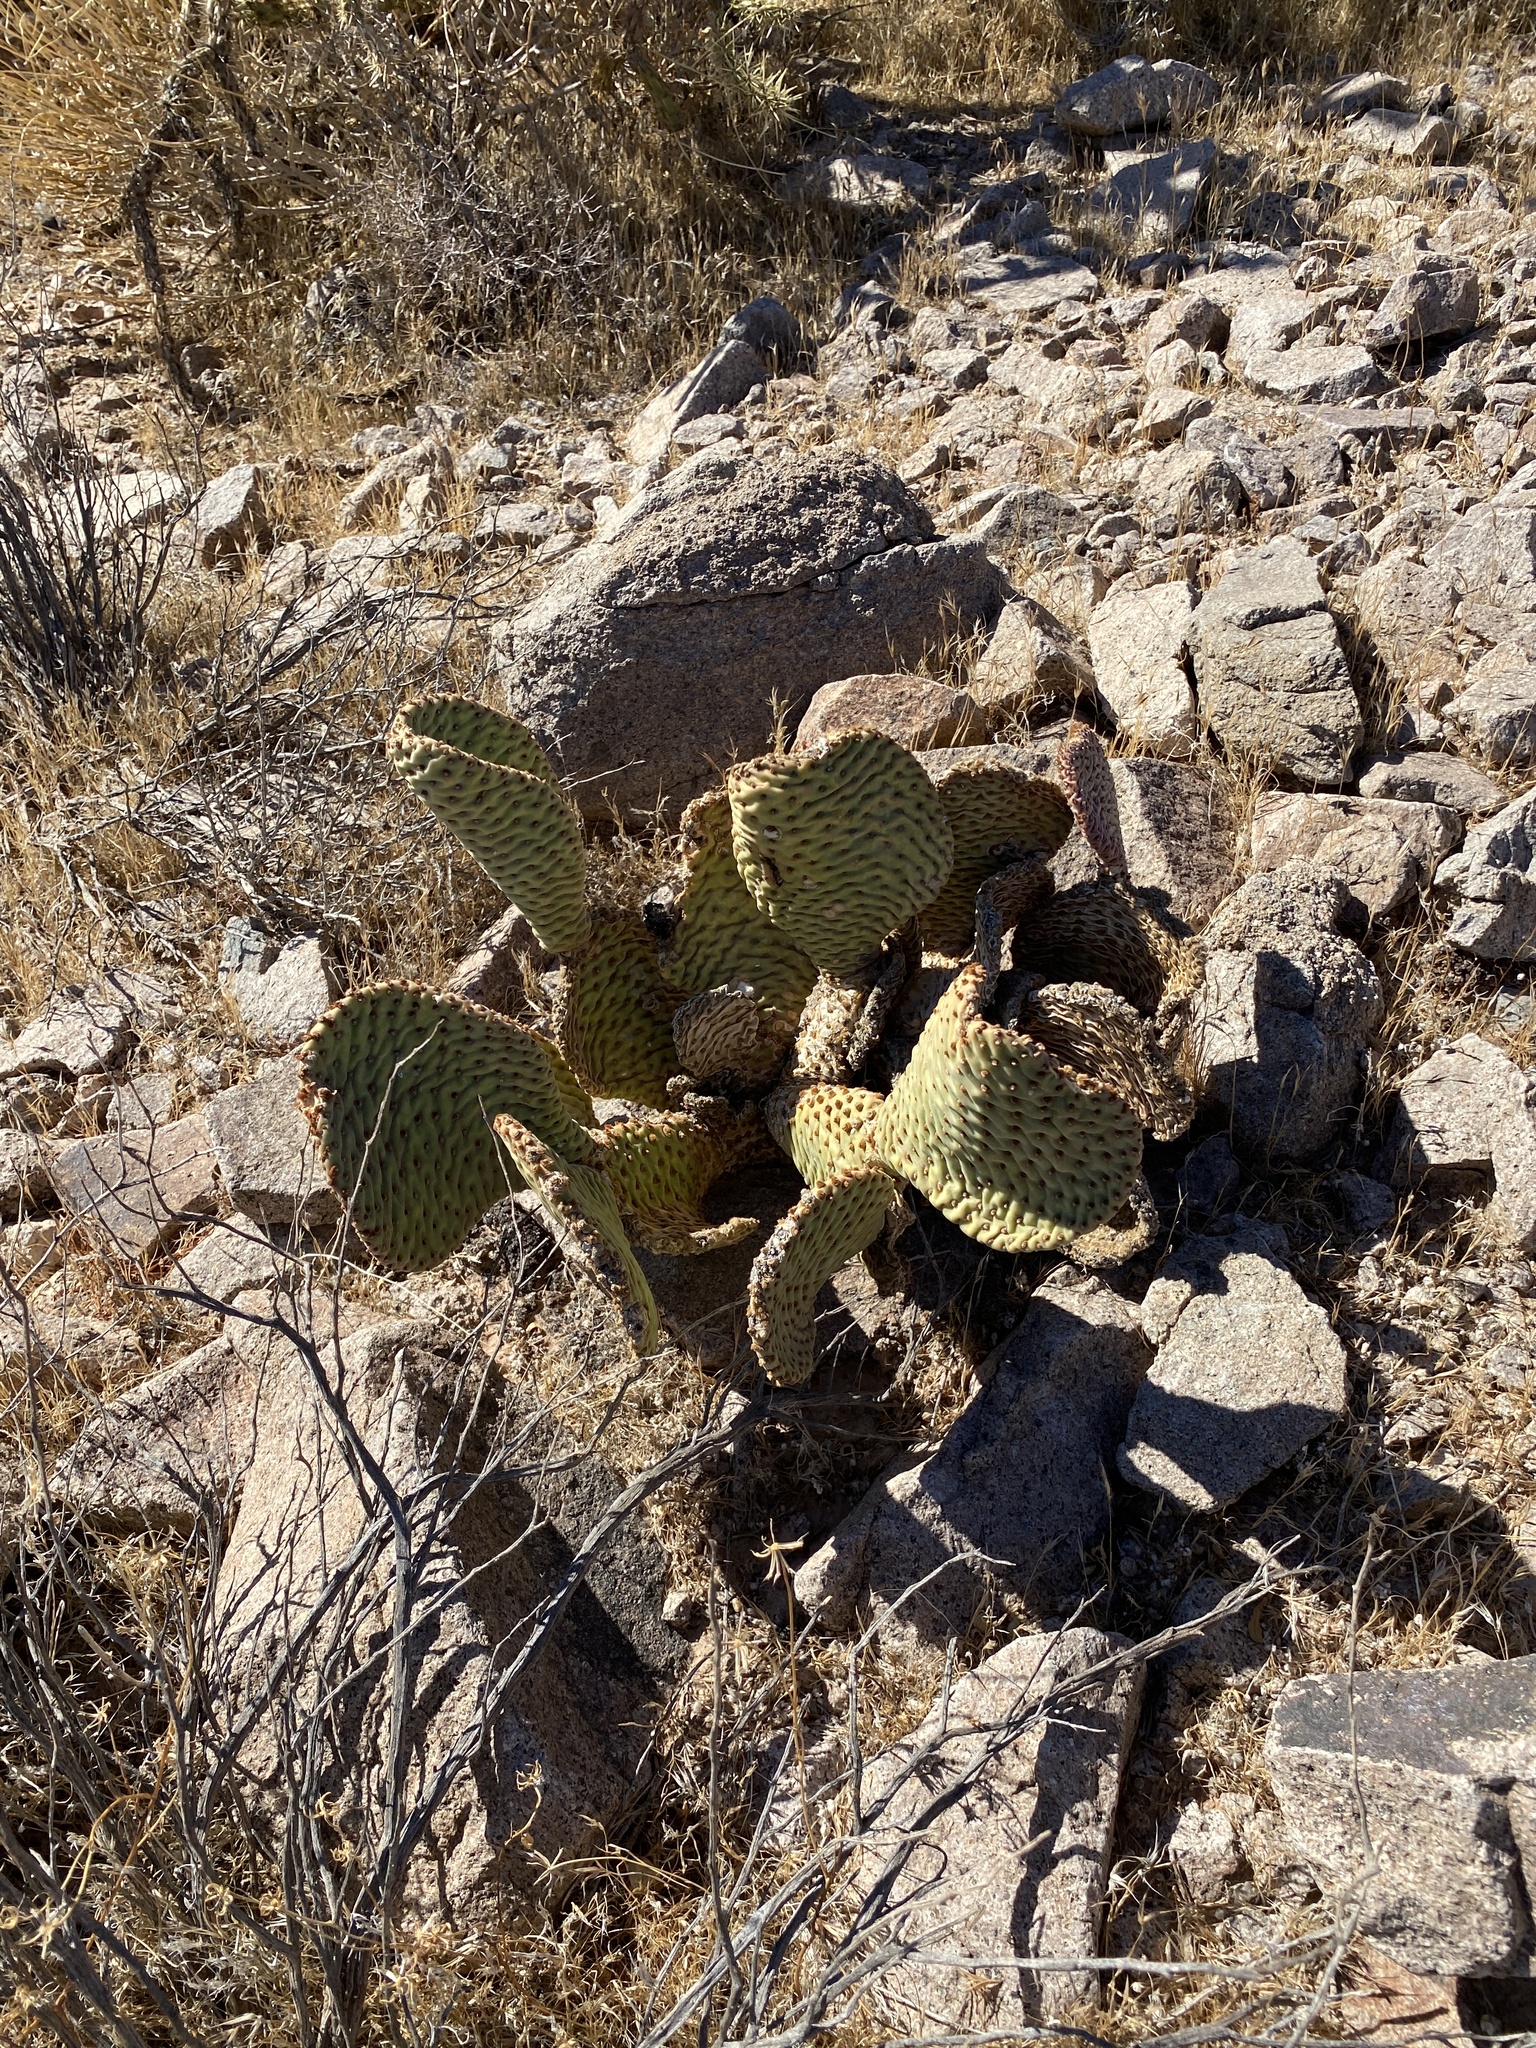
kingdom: Plantae
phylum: Tracheophyta
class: Magnoliopsida
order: Caryophyllales
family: Cactaceae
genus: Opuntia
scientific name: Opuntia basilaris
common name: Beavertail prickly-pear
